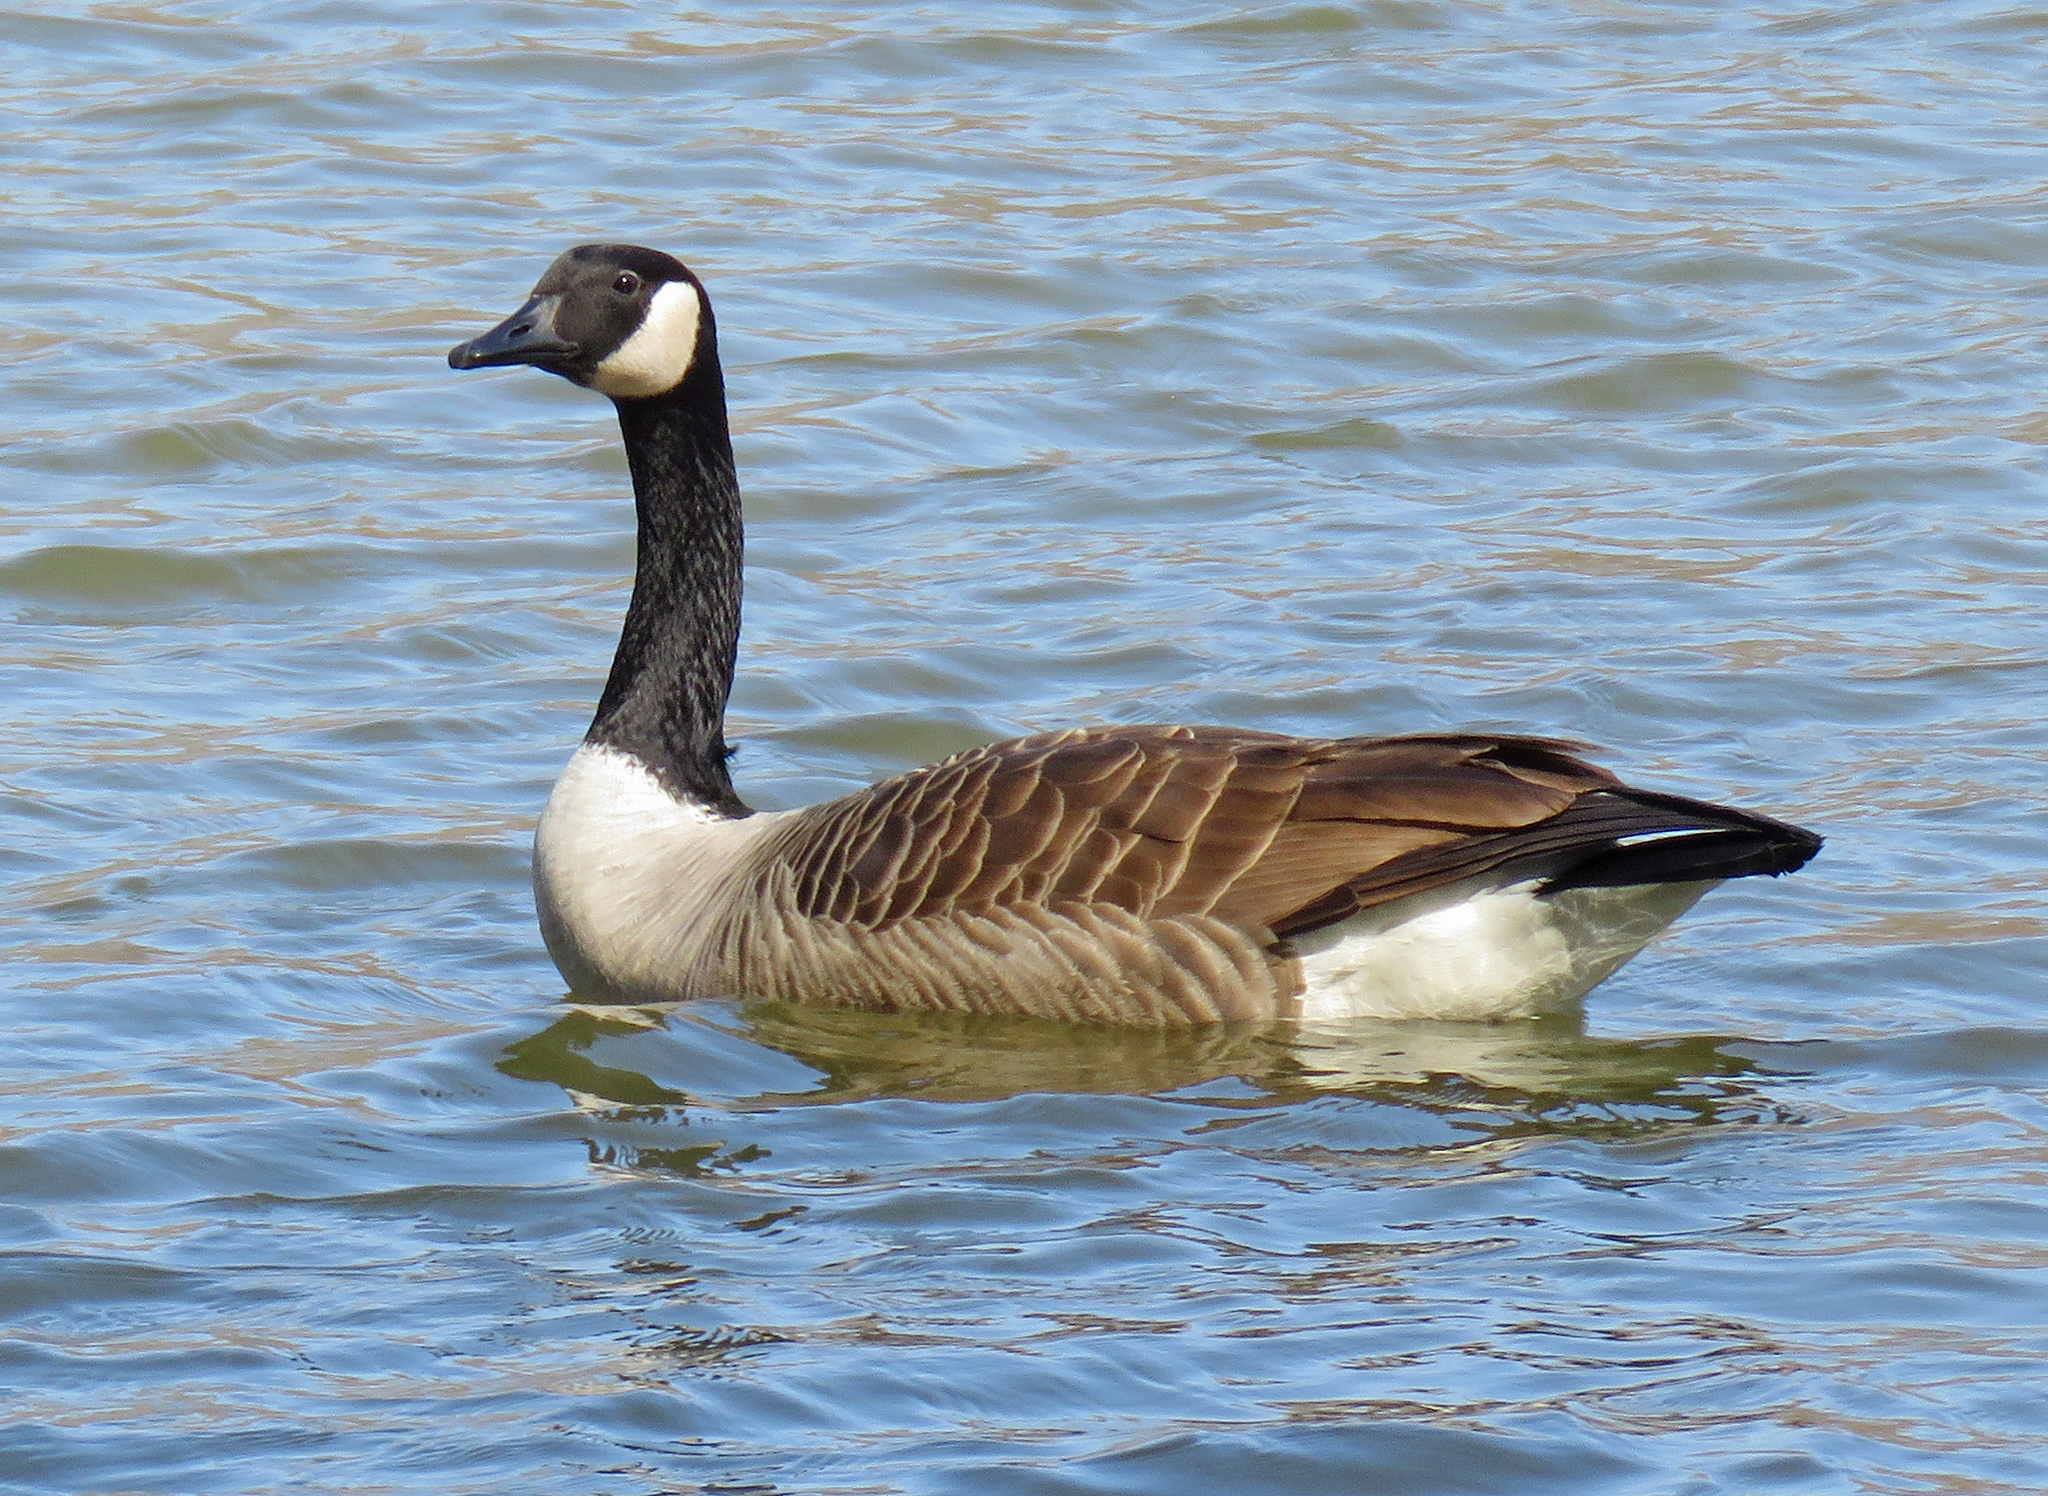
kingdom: Animalia
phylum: Chordata
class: Aves
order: Anseriformes
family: Anatidae
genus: Branta
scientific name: Branta canadensis
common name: Canada goose
